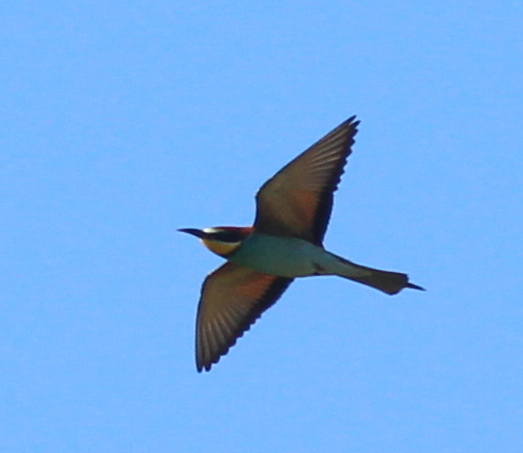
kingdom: Animalia
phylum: Chordata
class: Aves
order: Coraciiformes
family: Meropidae
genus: Merops
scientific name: Merops apiaster
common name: European bee-eater
